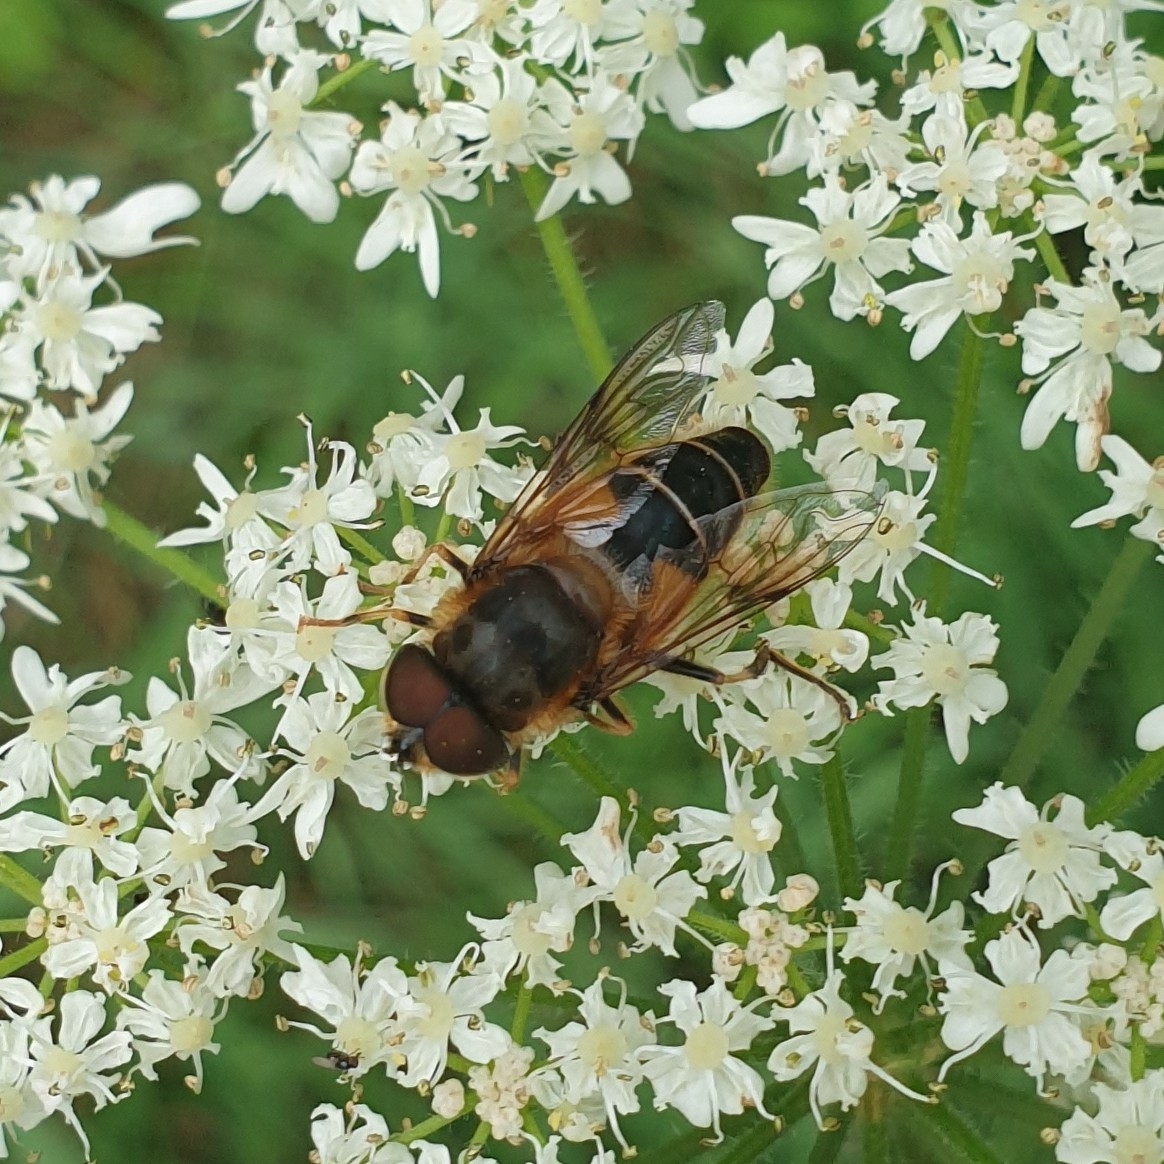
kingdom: Animalia
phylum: Arthropoda
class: Insecta
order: Diptera
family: Syrphidae
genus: Eristalis
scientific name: Eristalis pertinax
